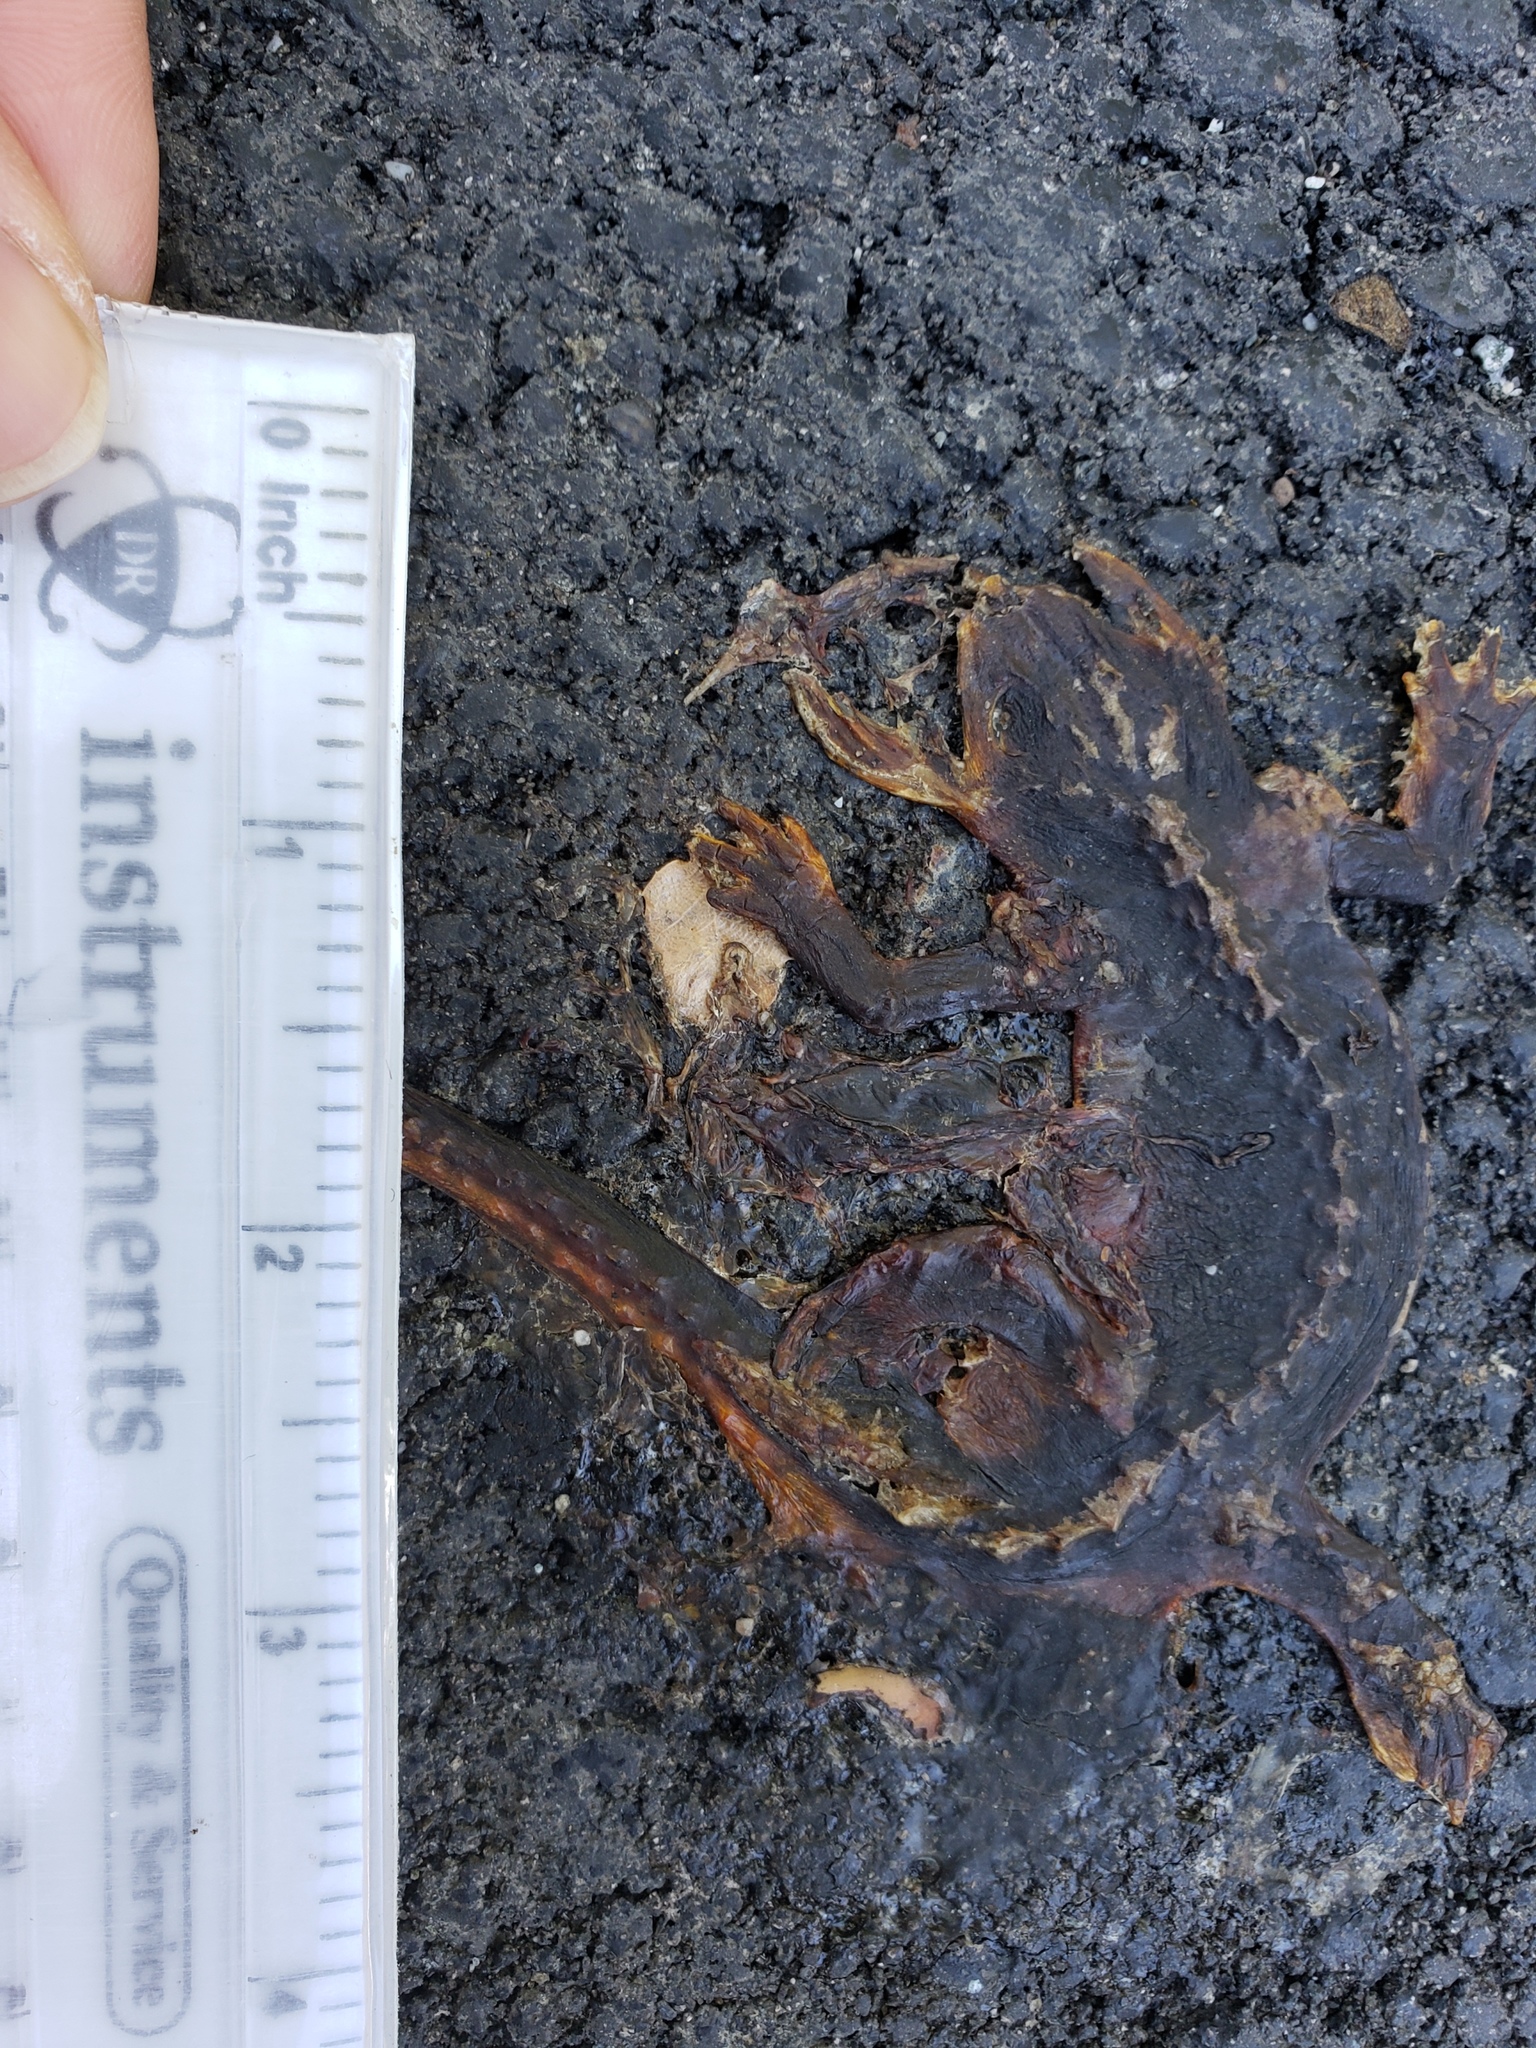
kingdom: Animalia
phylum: Chordata
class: Amphibia
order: Caudata
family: Salamandridae
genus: Taricha
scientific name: Taricha
